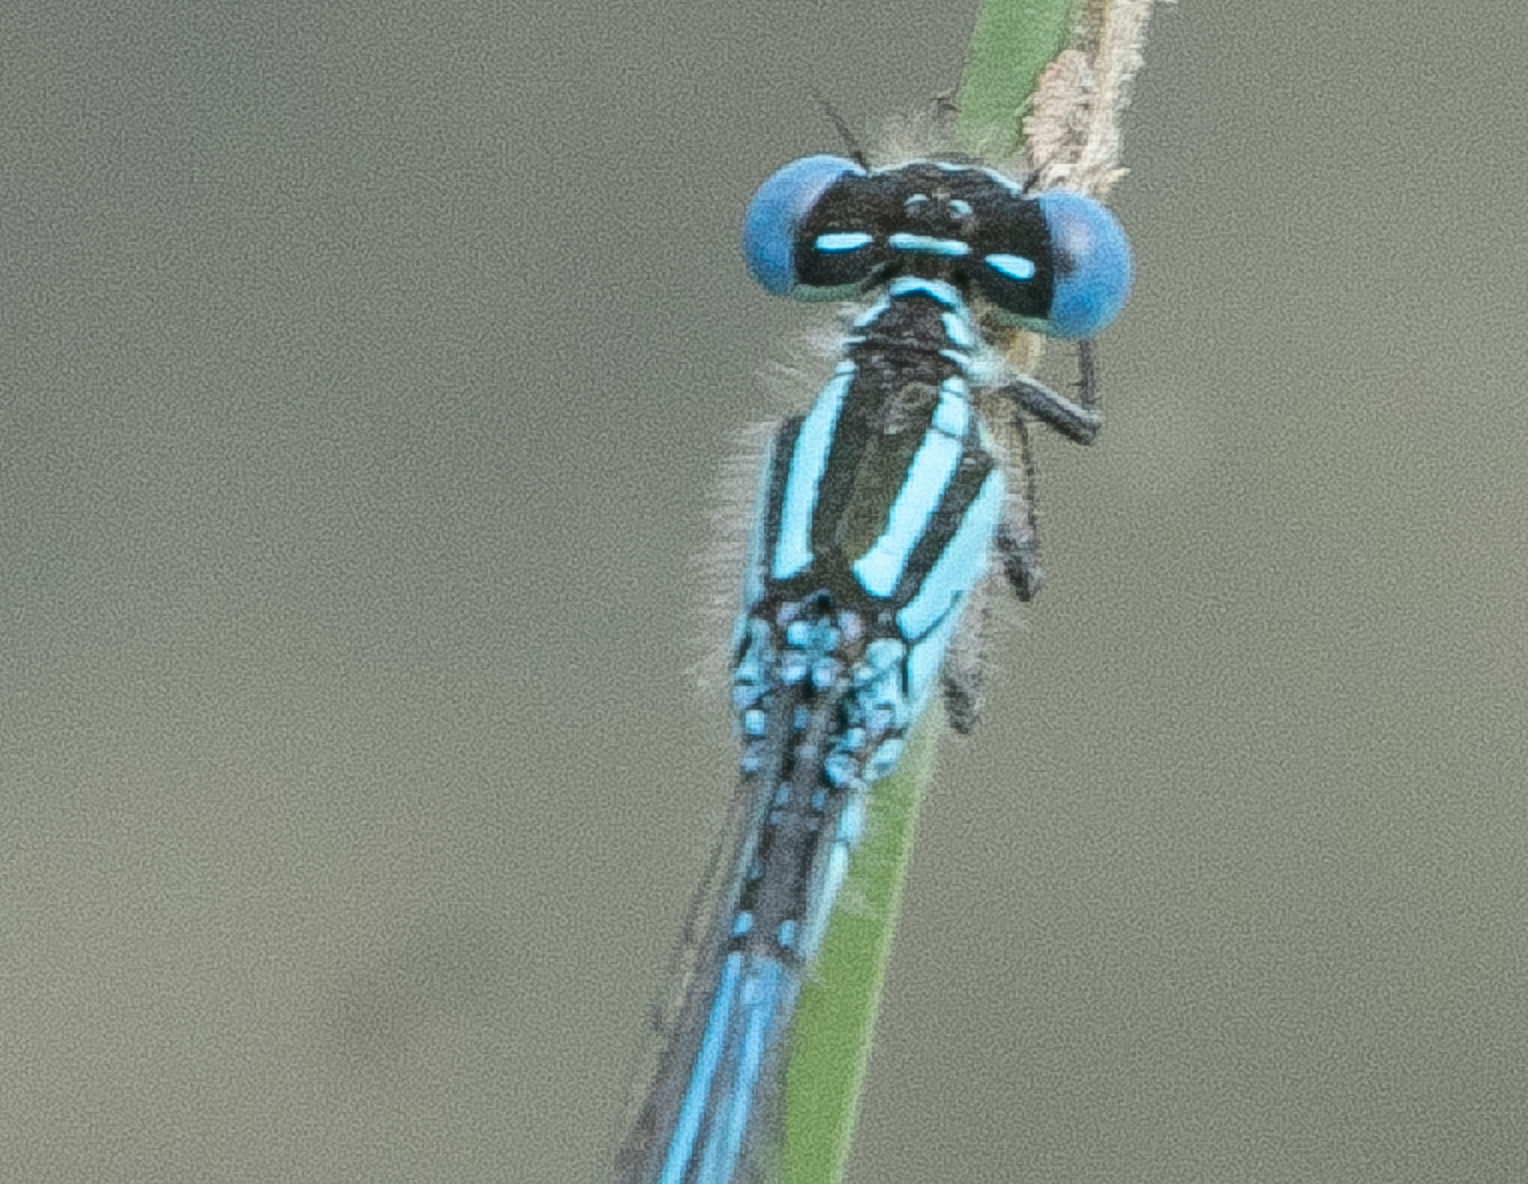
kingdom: Animalia
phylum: Arthropoda
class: Insecta
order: Odonata
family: Coenagrionidae
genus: Erythromma
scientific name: Erythromma lindenii
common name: Blue-eye
